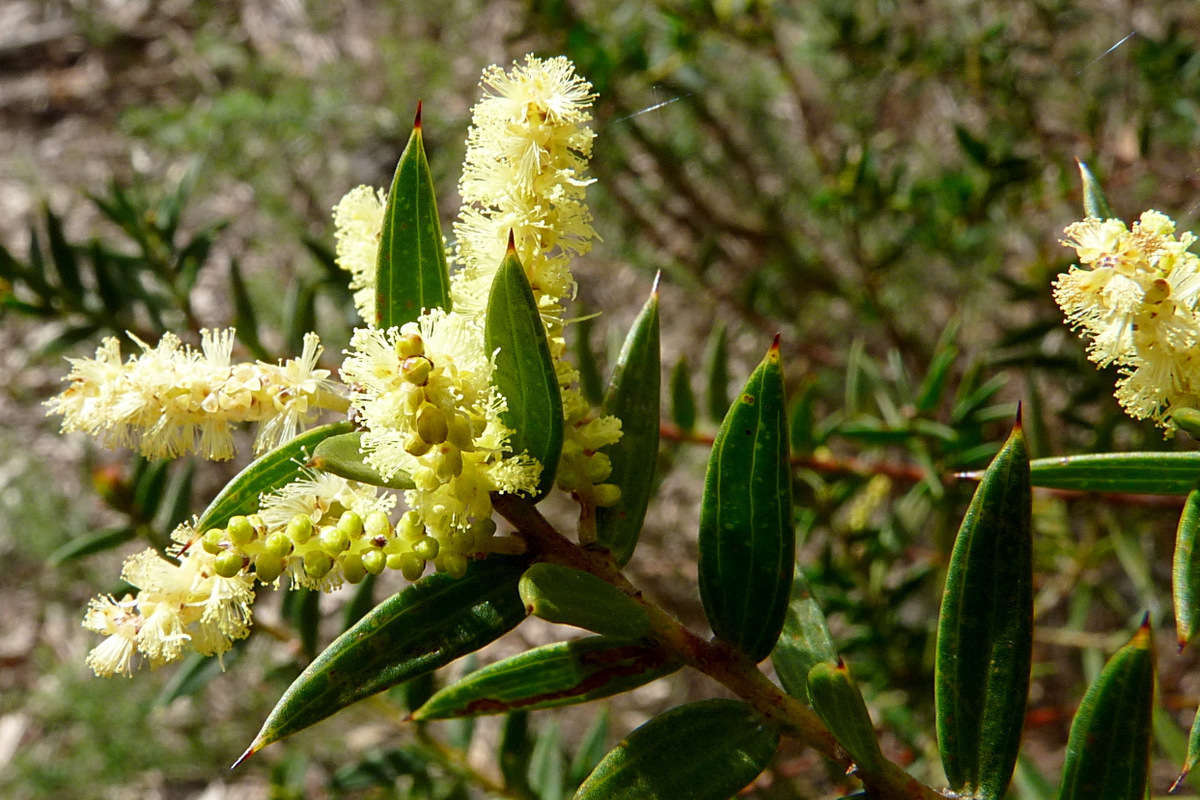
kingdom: Plantae
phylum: Tracheophyta
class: Magnoliopsida
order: Fabales
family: Fabaceae
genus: Acacia
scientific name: Acacia oxycedrus
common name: Spike wattle
